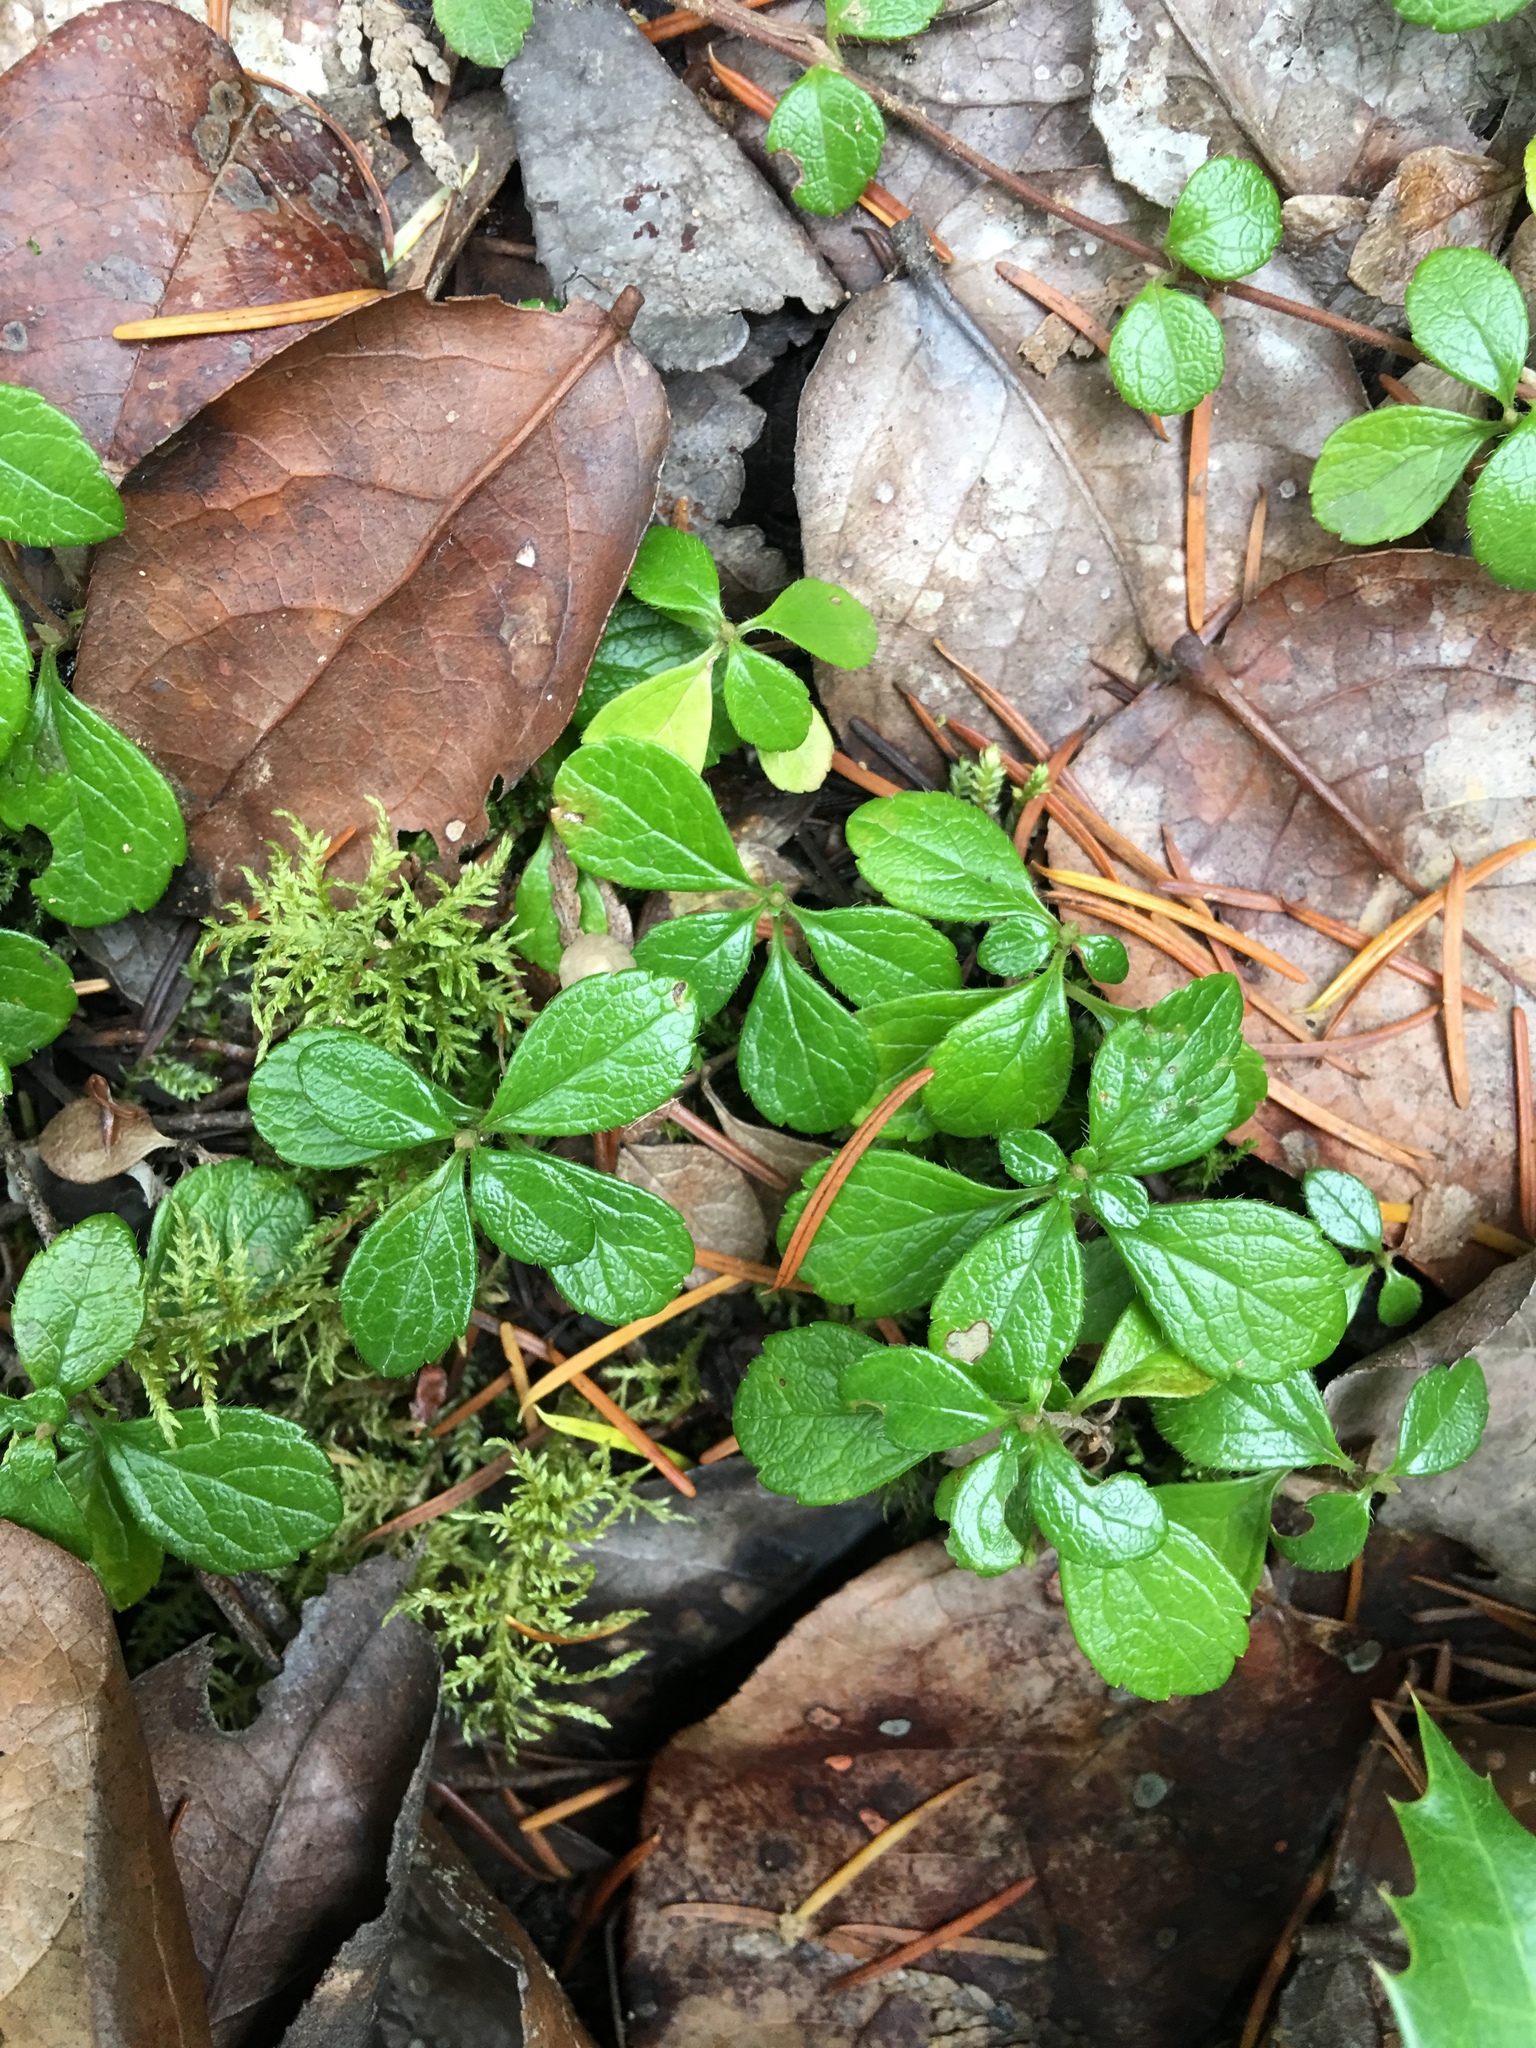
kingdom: Plantae
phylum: Tracheophyta
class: Magnoliopsida
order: Dipsacales
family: Caprifoliaceae
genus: Linnaea
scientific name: Linnaea borealis
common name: Twinflower
